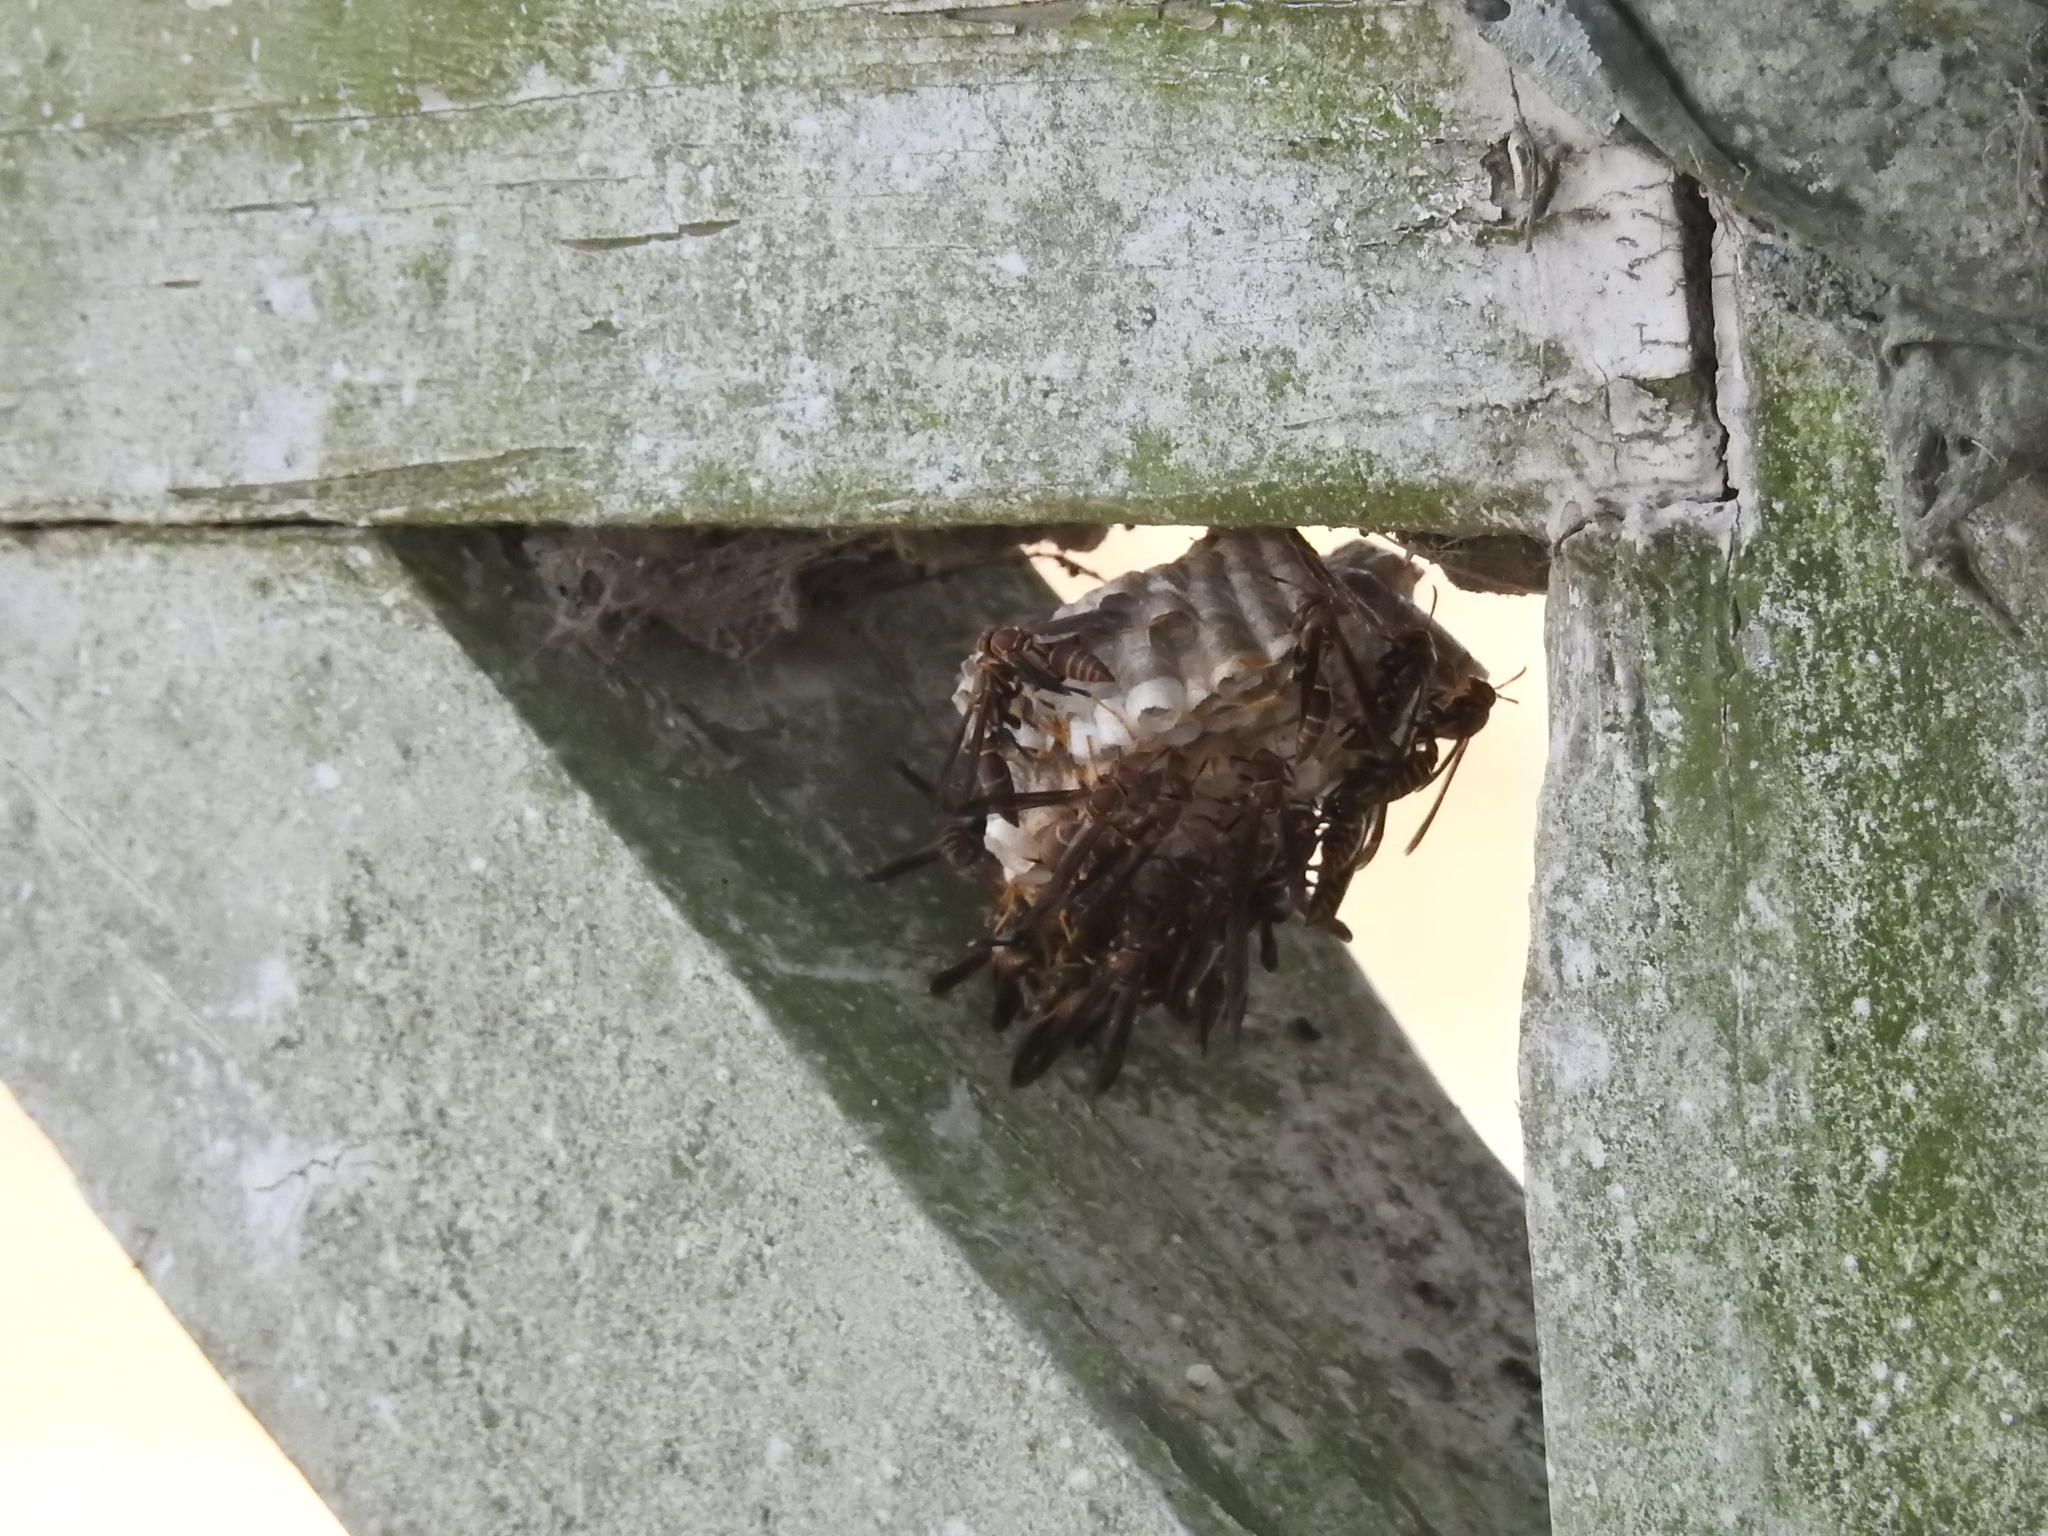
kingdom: Animalia
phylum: Arthropoda
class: Insecta
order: Hymenoptera
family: Eumenidae
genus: Polistes
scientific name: Polistes exclamans
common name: Paper wasp
